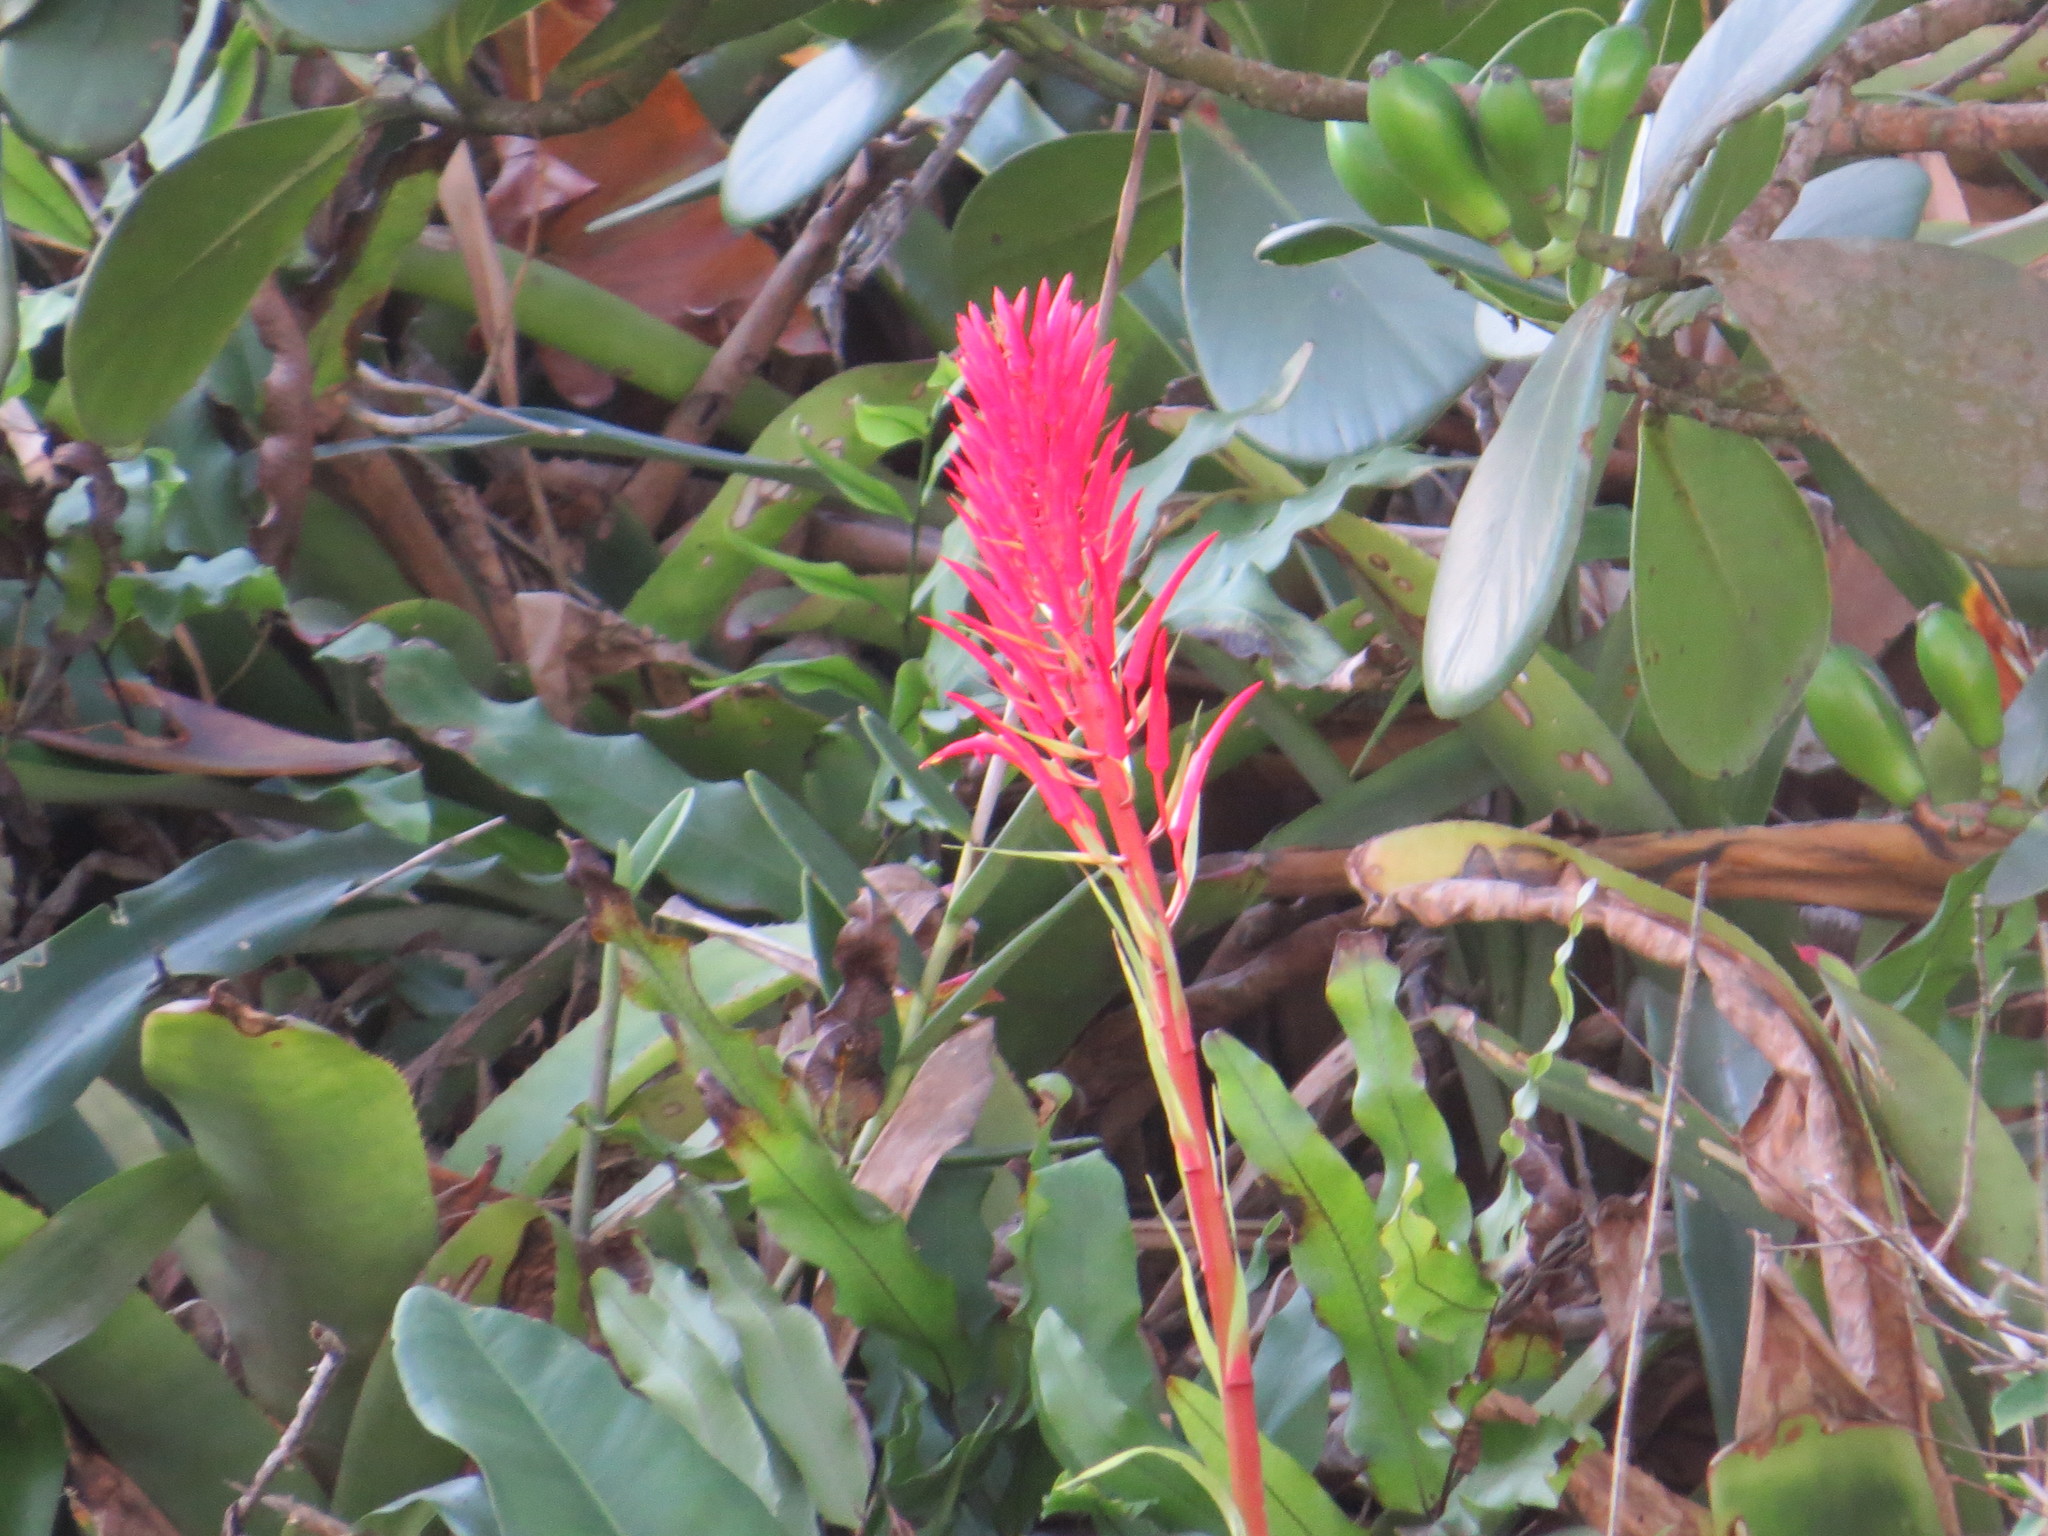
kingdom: Plantae
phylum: Tracheophyta
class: Liliopsida
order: Poales
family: Bromeliaceae
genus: Pitcairnia
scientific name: Pitcairnia flammea
